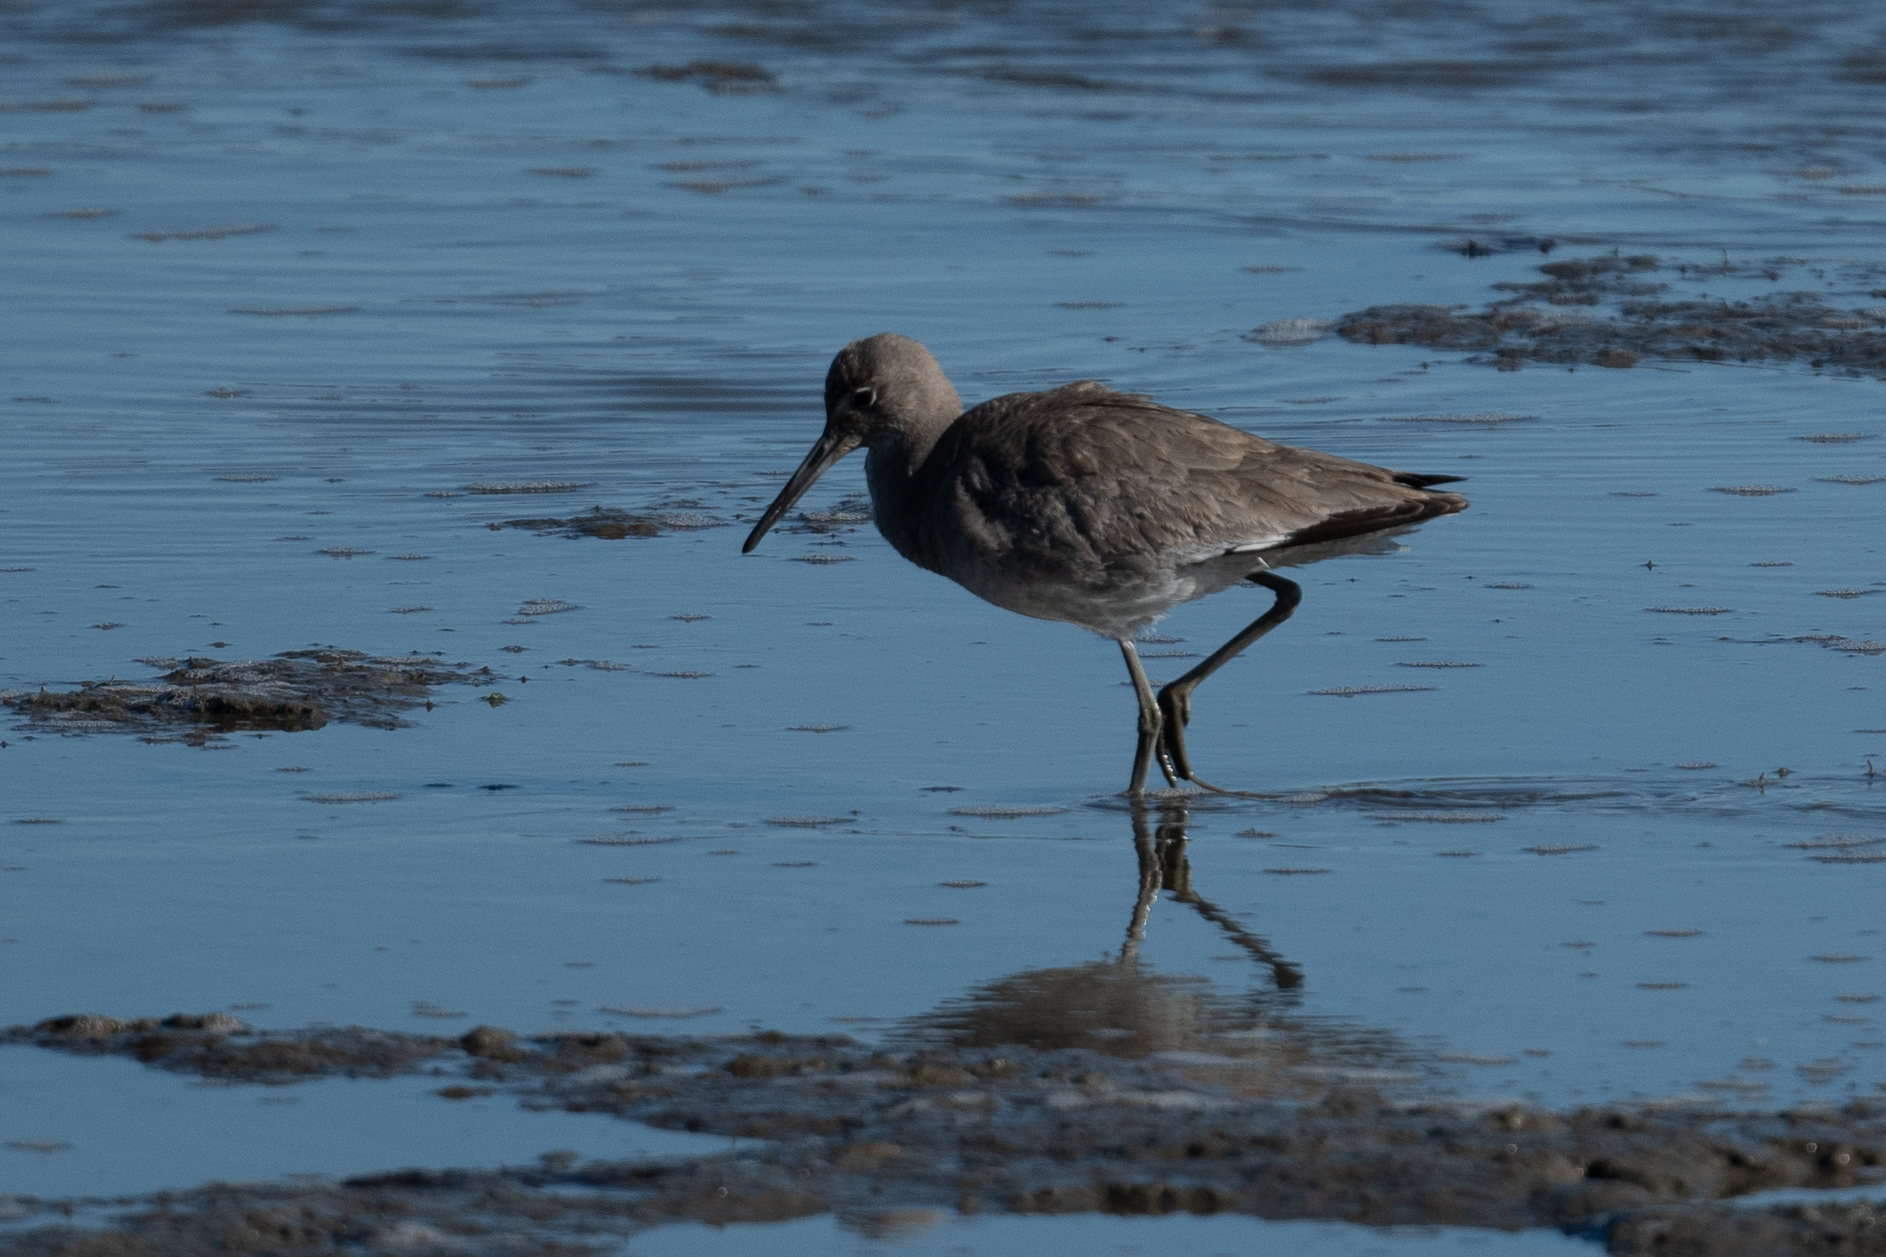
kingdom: Animalia
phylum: Chordata
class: Aves
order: Charadriiformes
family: Scolopacidae
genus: Tringa
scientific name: Tringa semipalmata
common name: Willet
